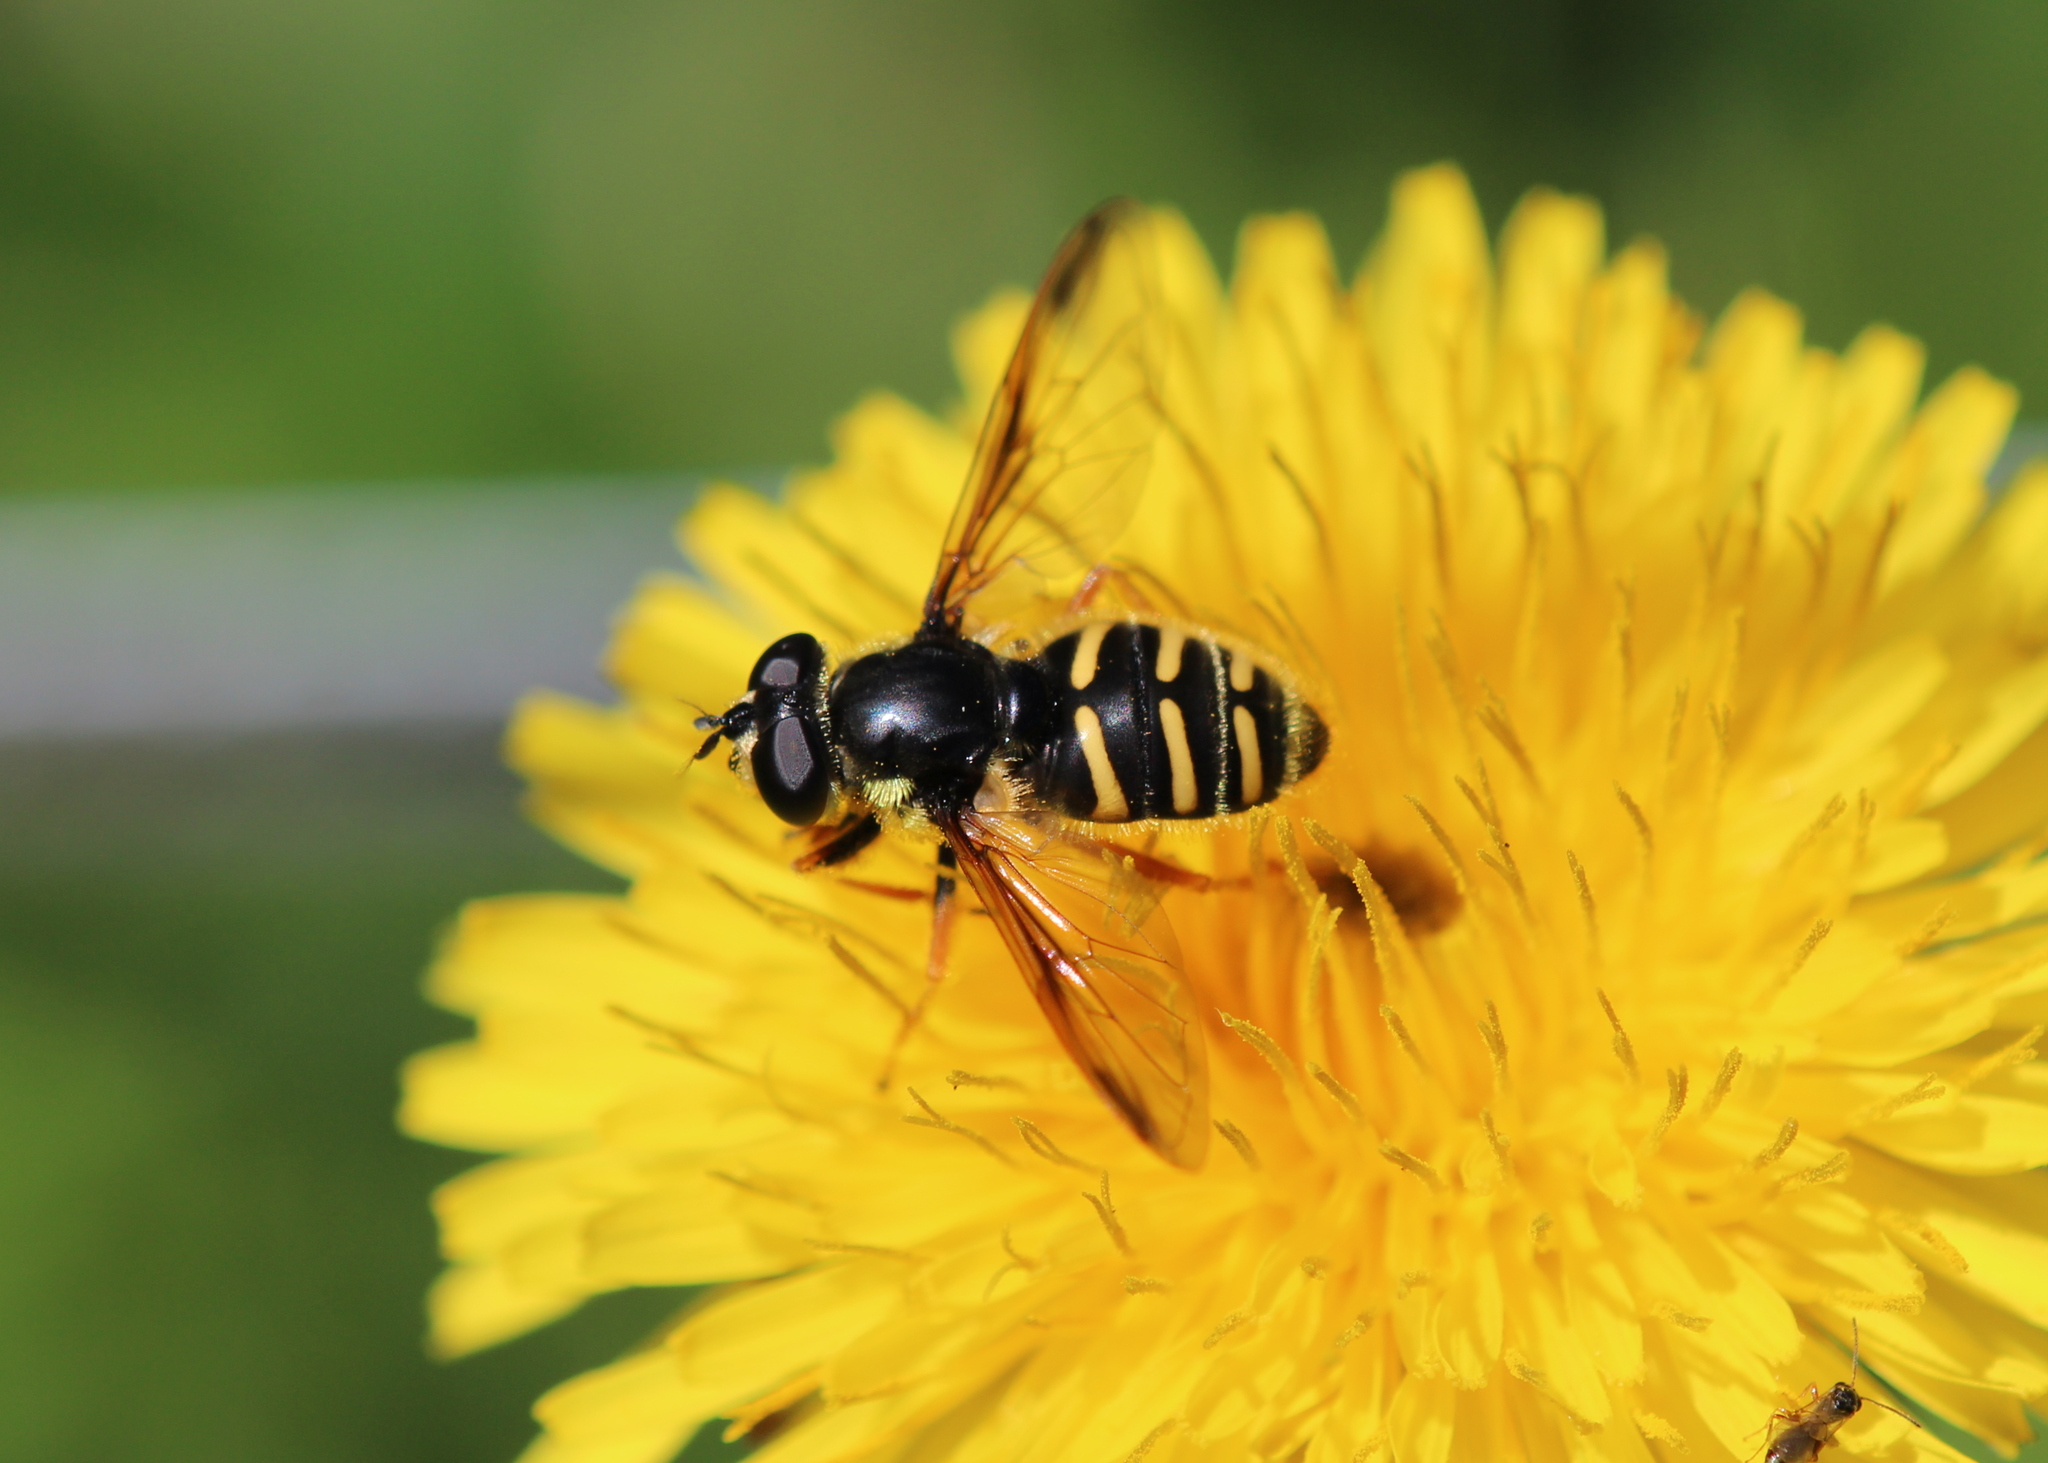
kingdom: Animalia
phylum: Arthropoda
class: Insecta
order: Diptera
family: Syrphidae
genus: Sericomyia
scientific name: Sericomyia chrysotoxoides
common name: Oblique-banded pond fly
